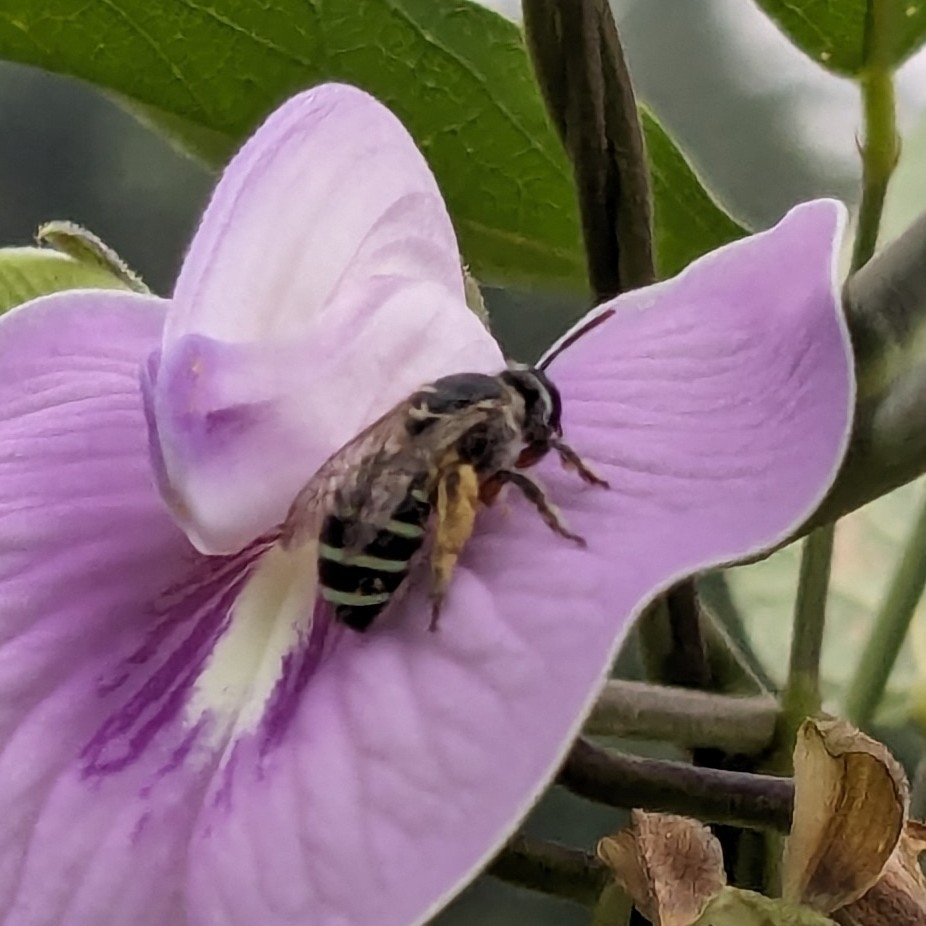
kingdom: Animalia
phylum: Arthropoda
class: Insecta
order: Hymenoptera
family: Halictidae
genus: Nomia
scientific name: Nomia westwoodi
